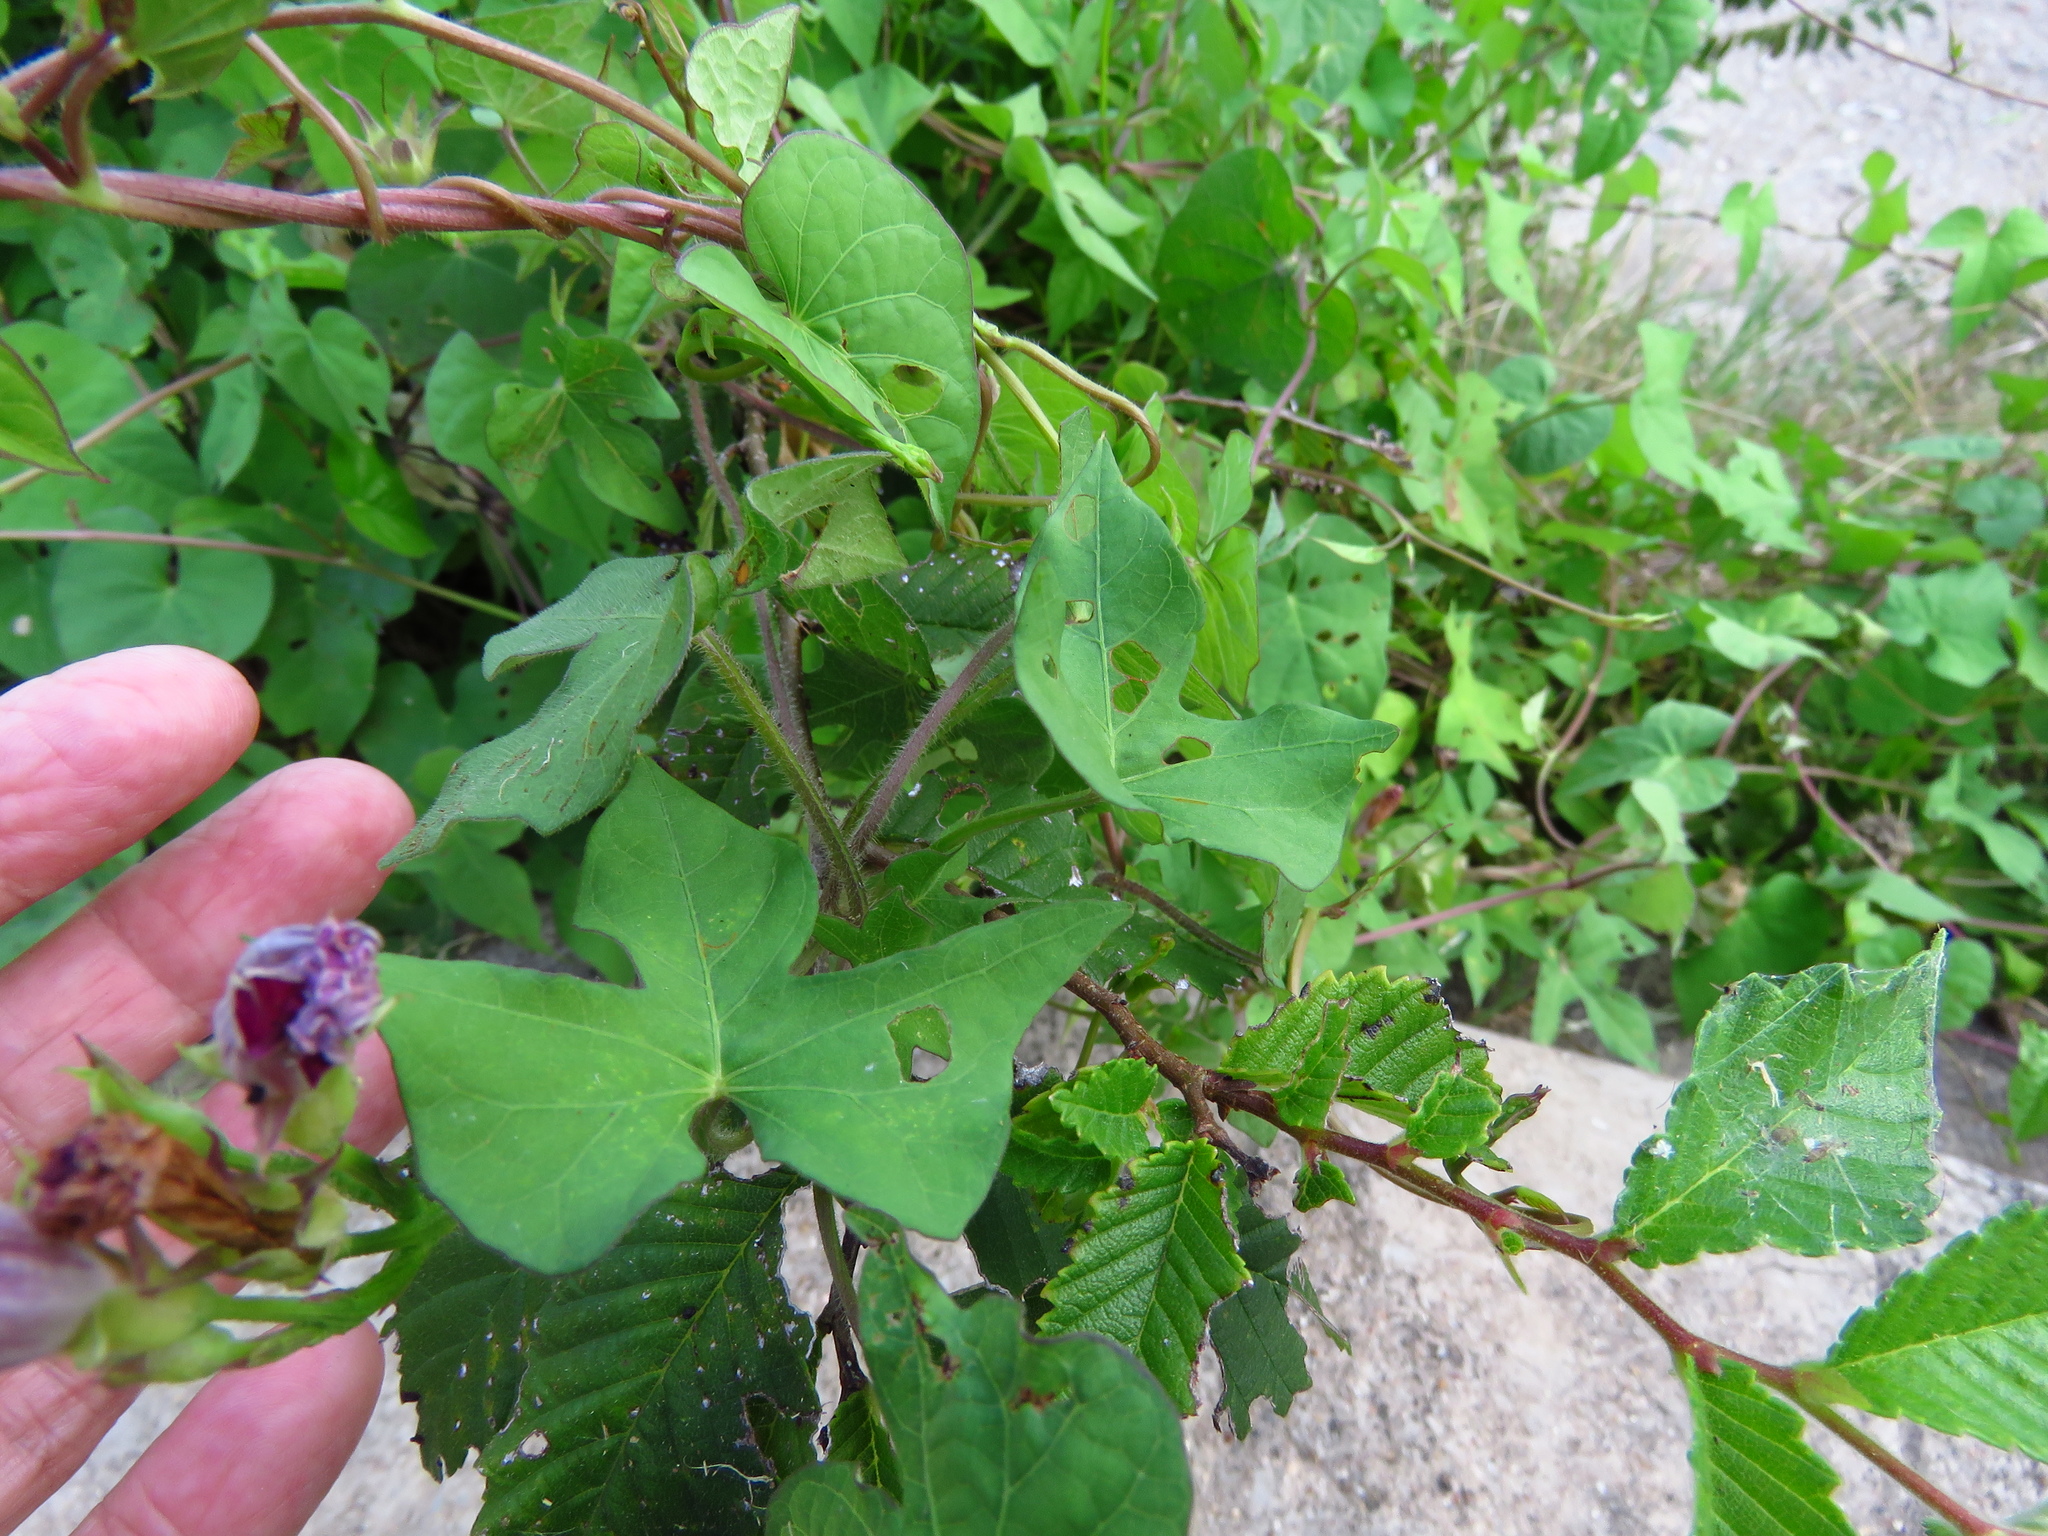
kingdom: Plantae
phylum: Tracheophyta
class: Magnoliopsida
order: Solanales
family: Convolvulaceae
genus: Ipomoea
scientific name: Ipomoea cordatotriloba
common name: Cotton morning glory
